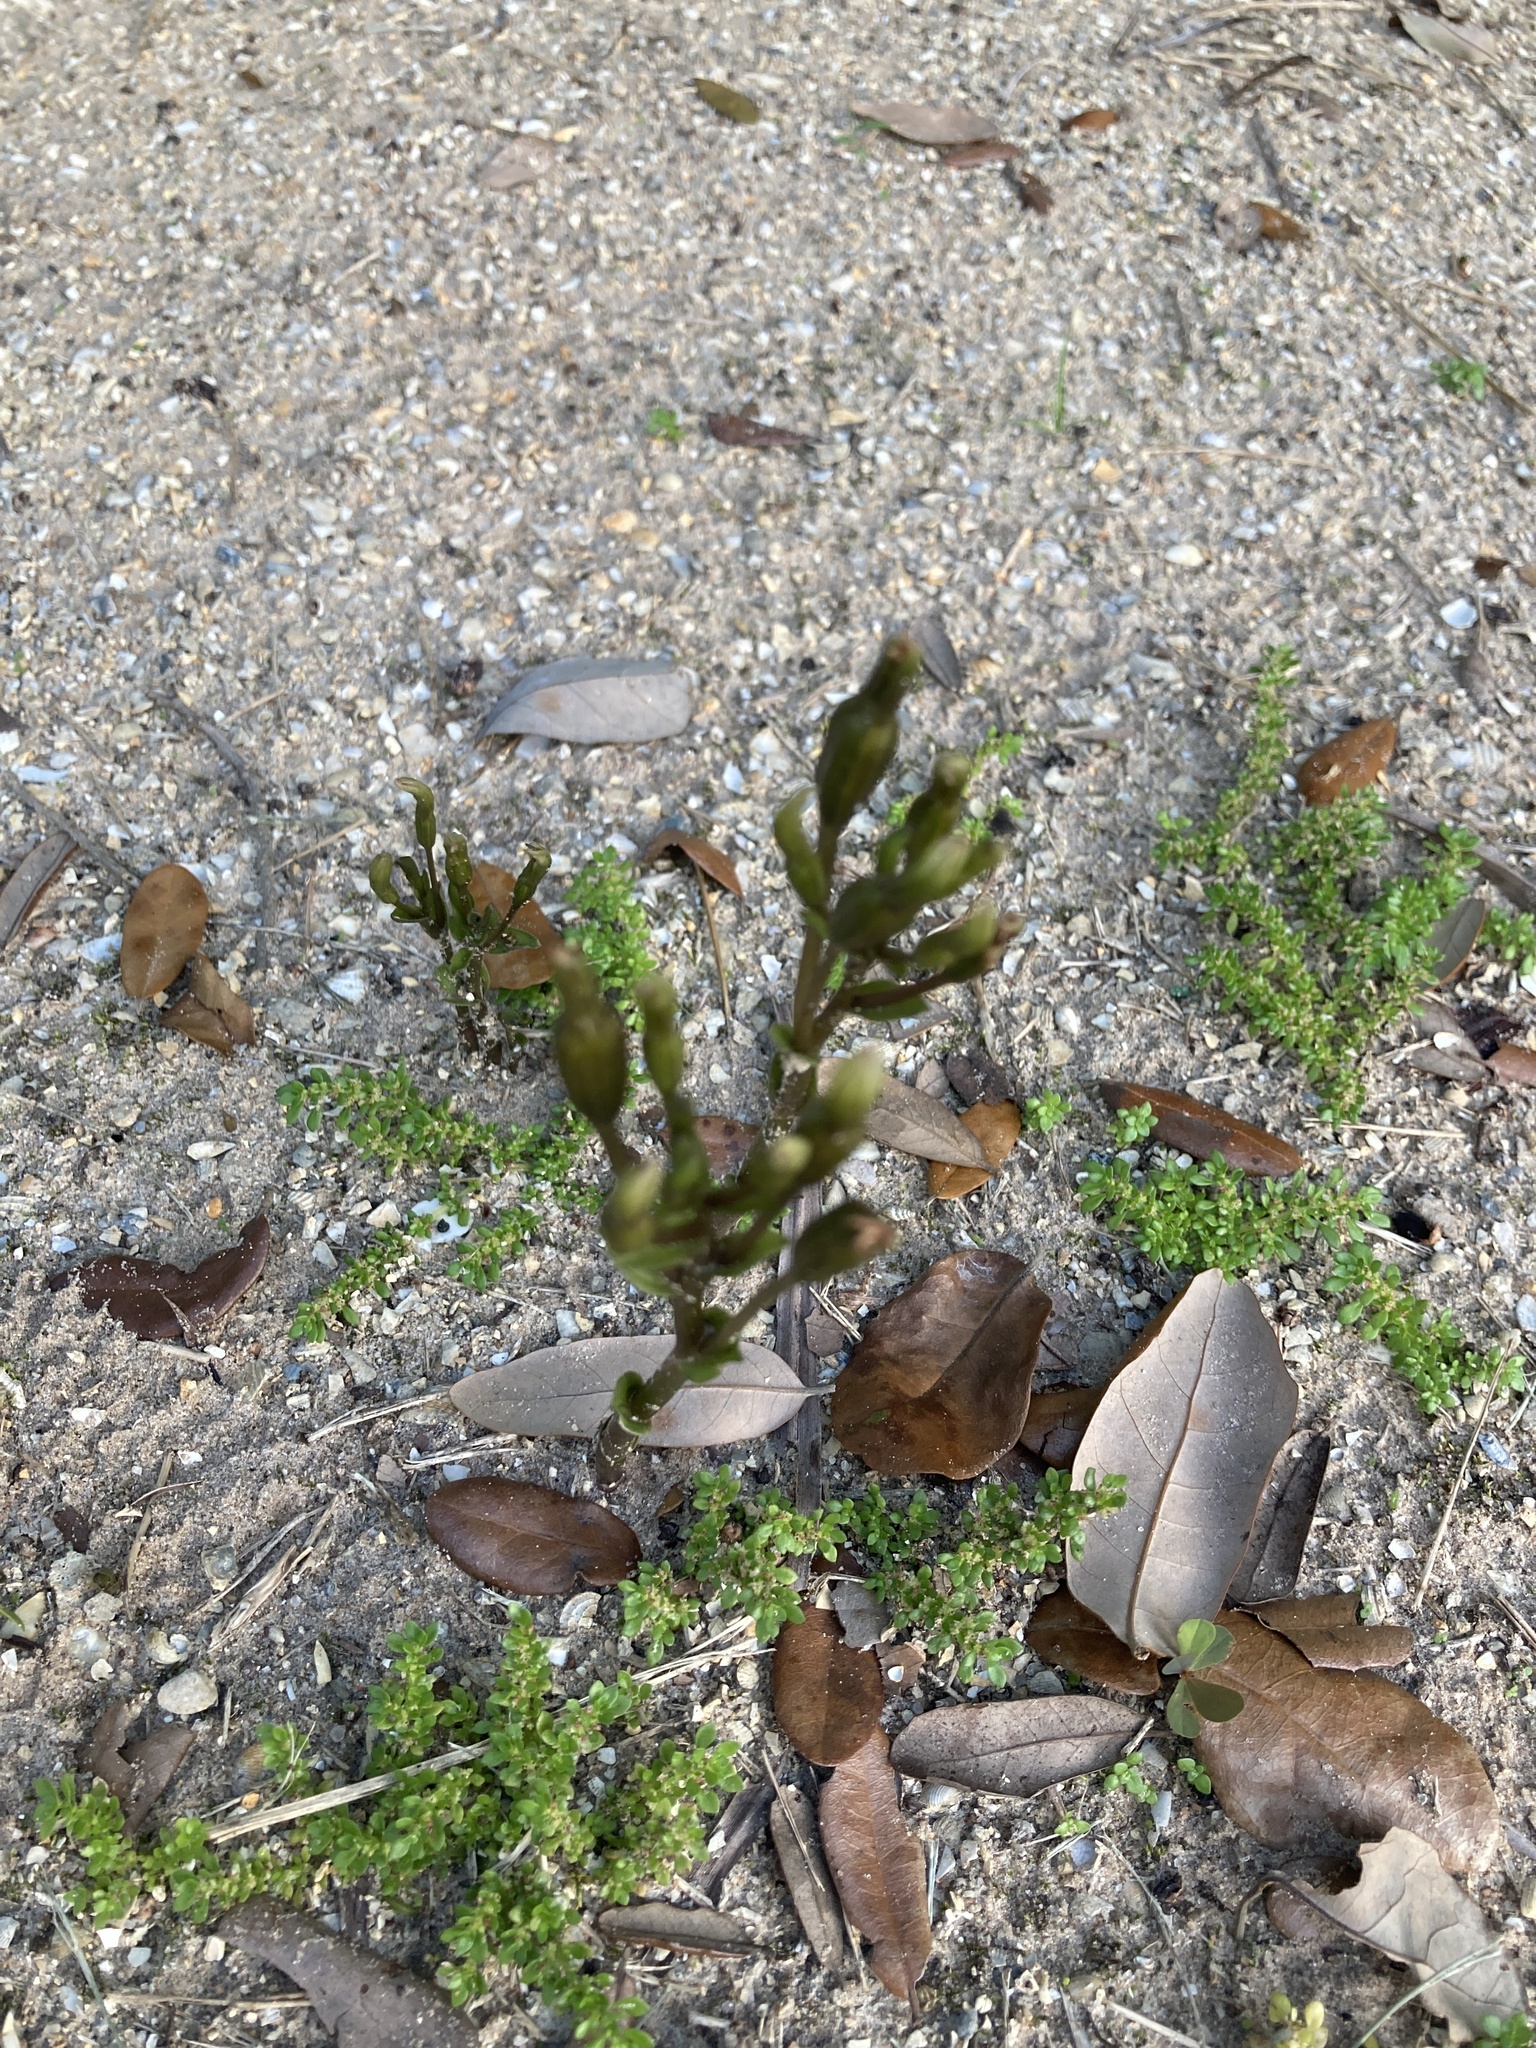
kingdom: Plantae
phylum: Tracheophyta
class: Liliopsida
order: Asparagales
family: Orchidaceae
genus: Triphora
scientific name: Triphora gentianoides
